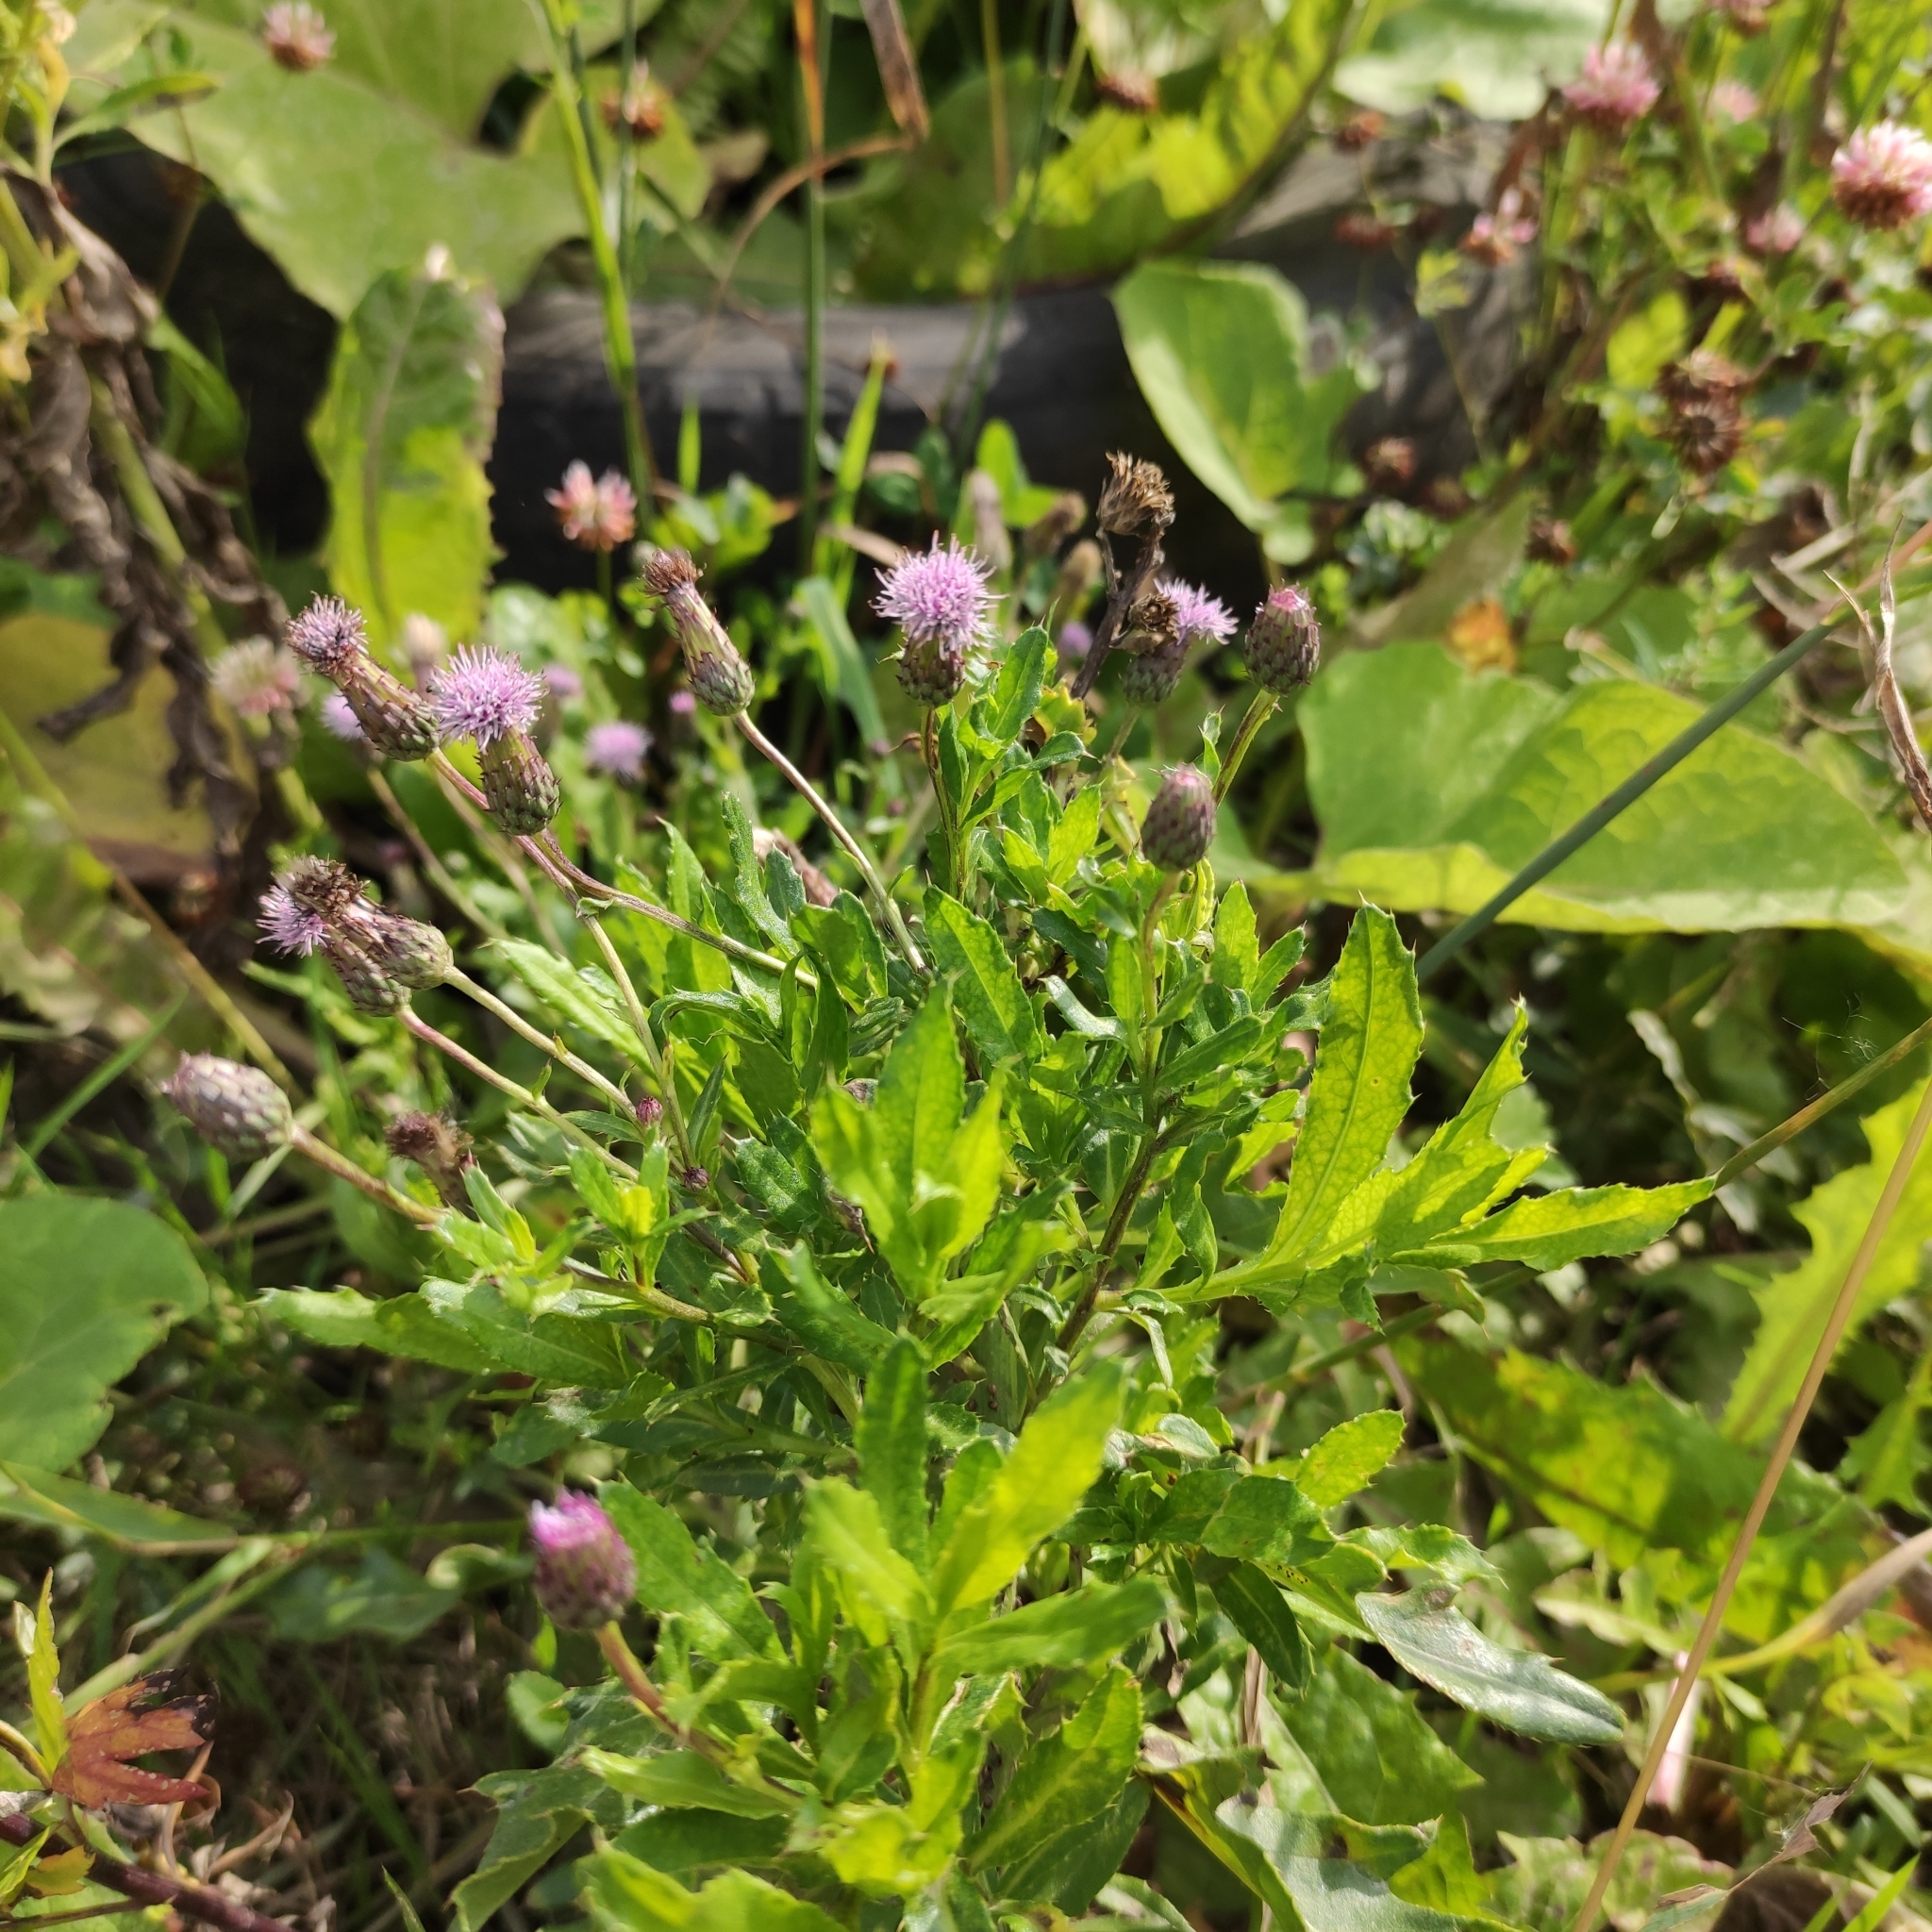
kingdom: Plantae
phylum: Tracheophyta
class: Magnoliopsida
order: Asterales
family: Asteraceae
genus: Cirsium
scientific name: Cirsium arvense
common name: Creeping thistle
